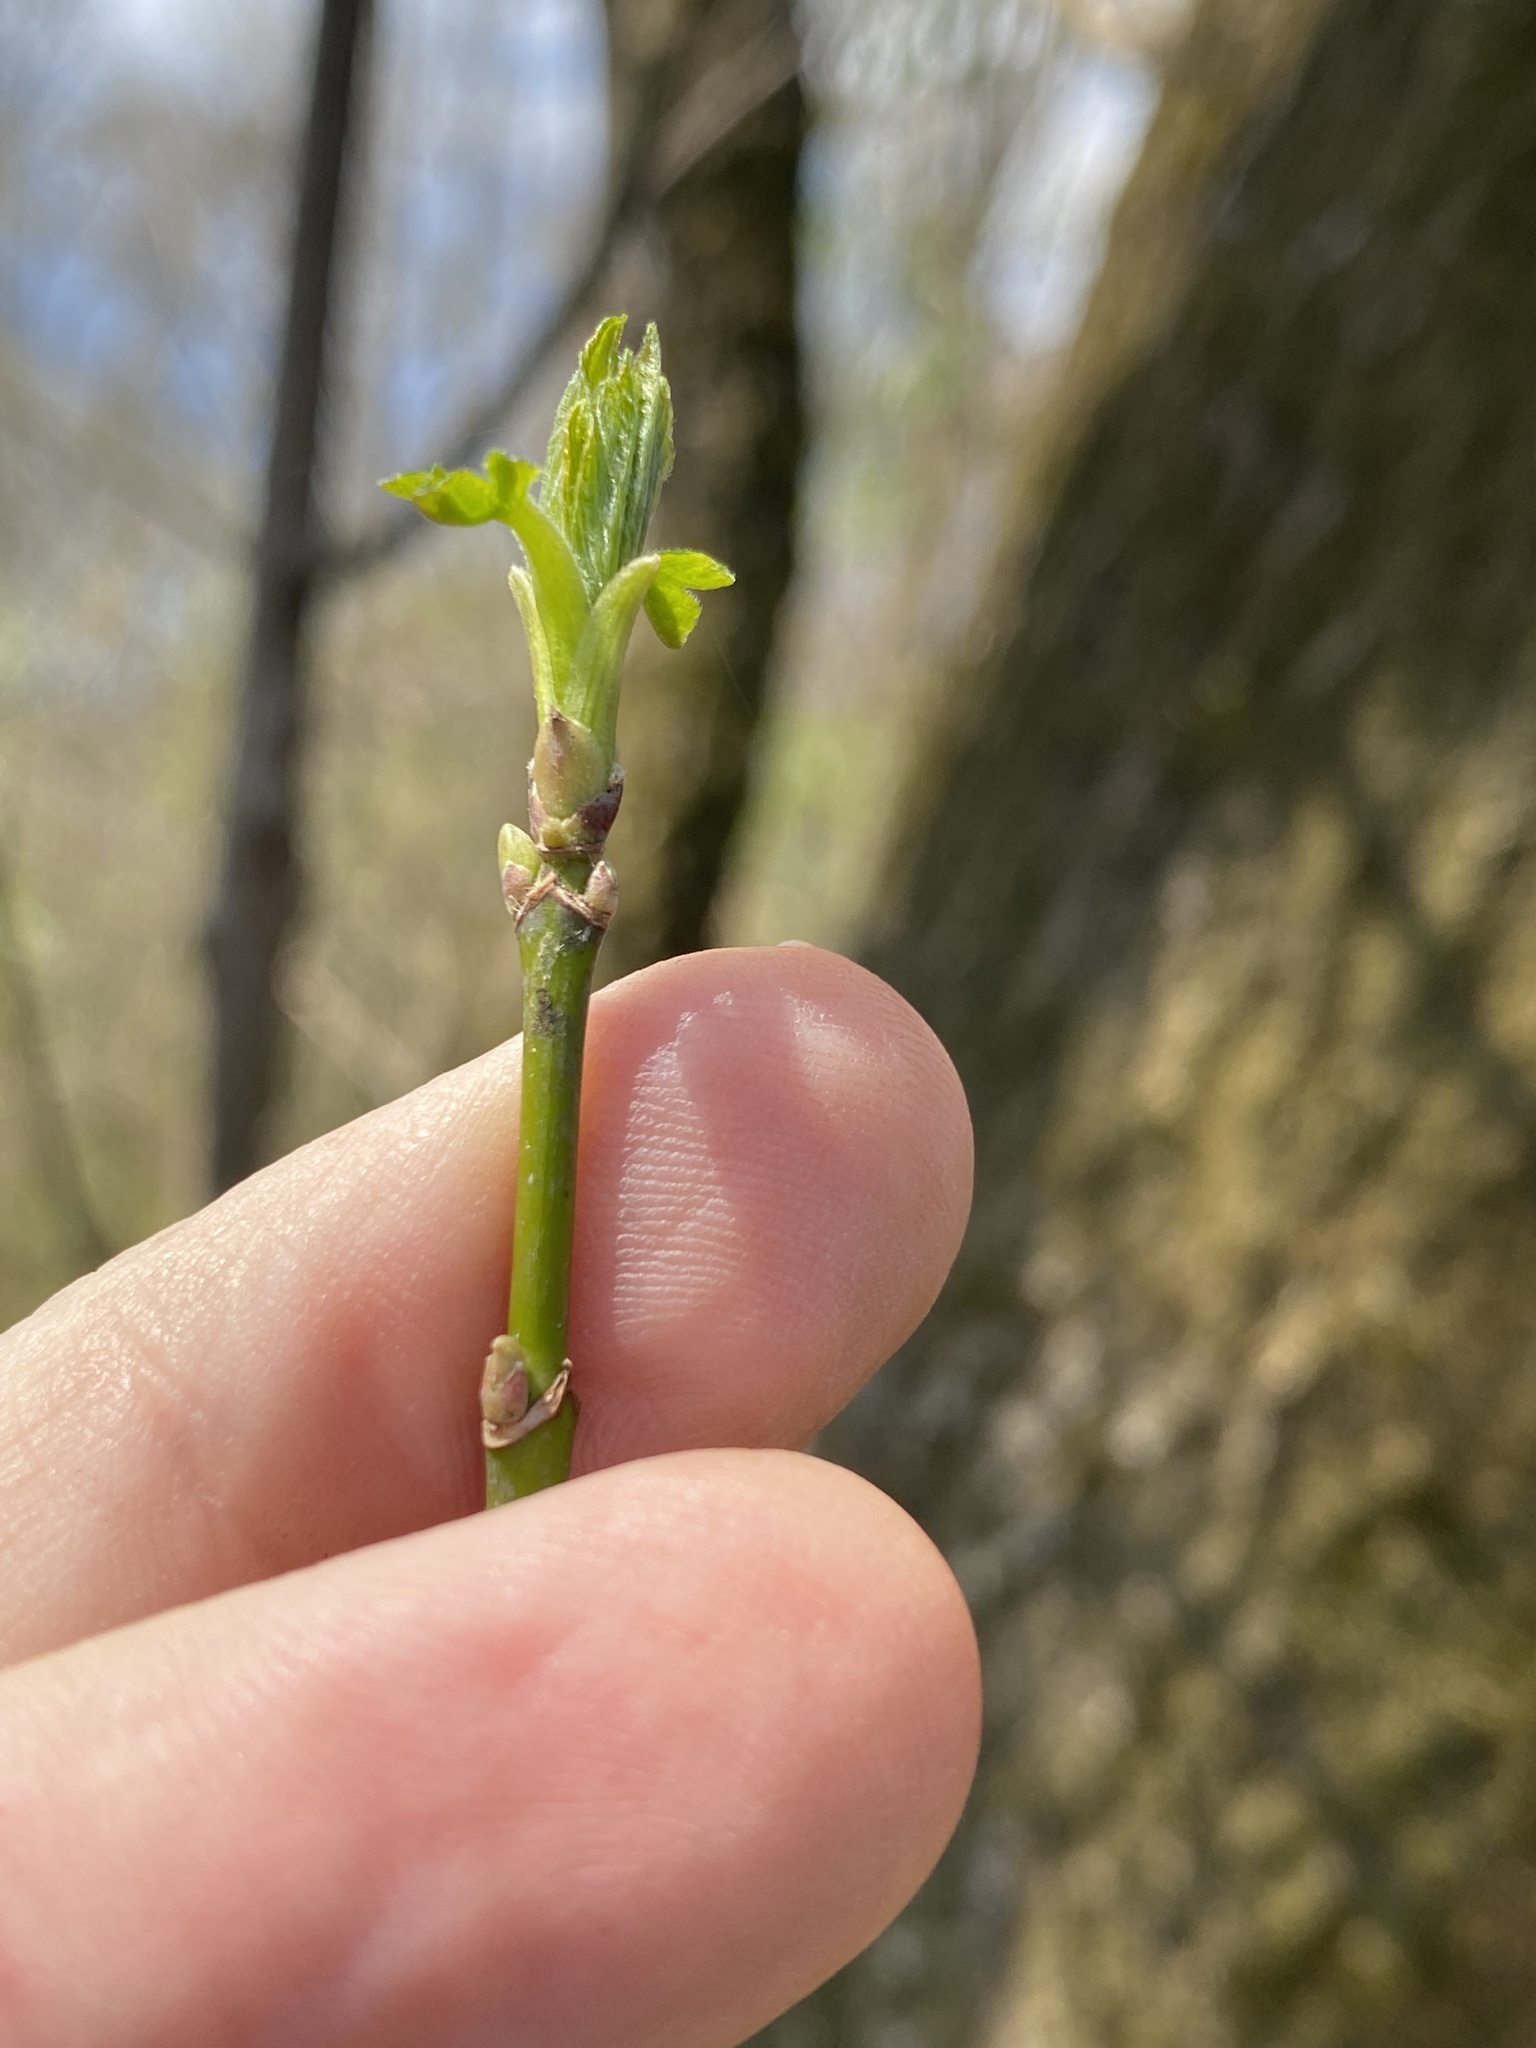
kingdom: Plantae
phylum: Tracheophyta
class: Magnoliopsida
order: Sapindales
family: Sapindaceae
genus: Acer
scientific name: Acer negundo
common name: Ashleaf maple
